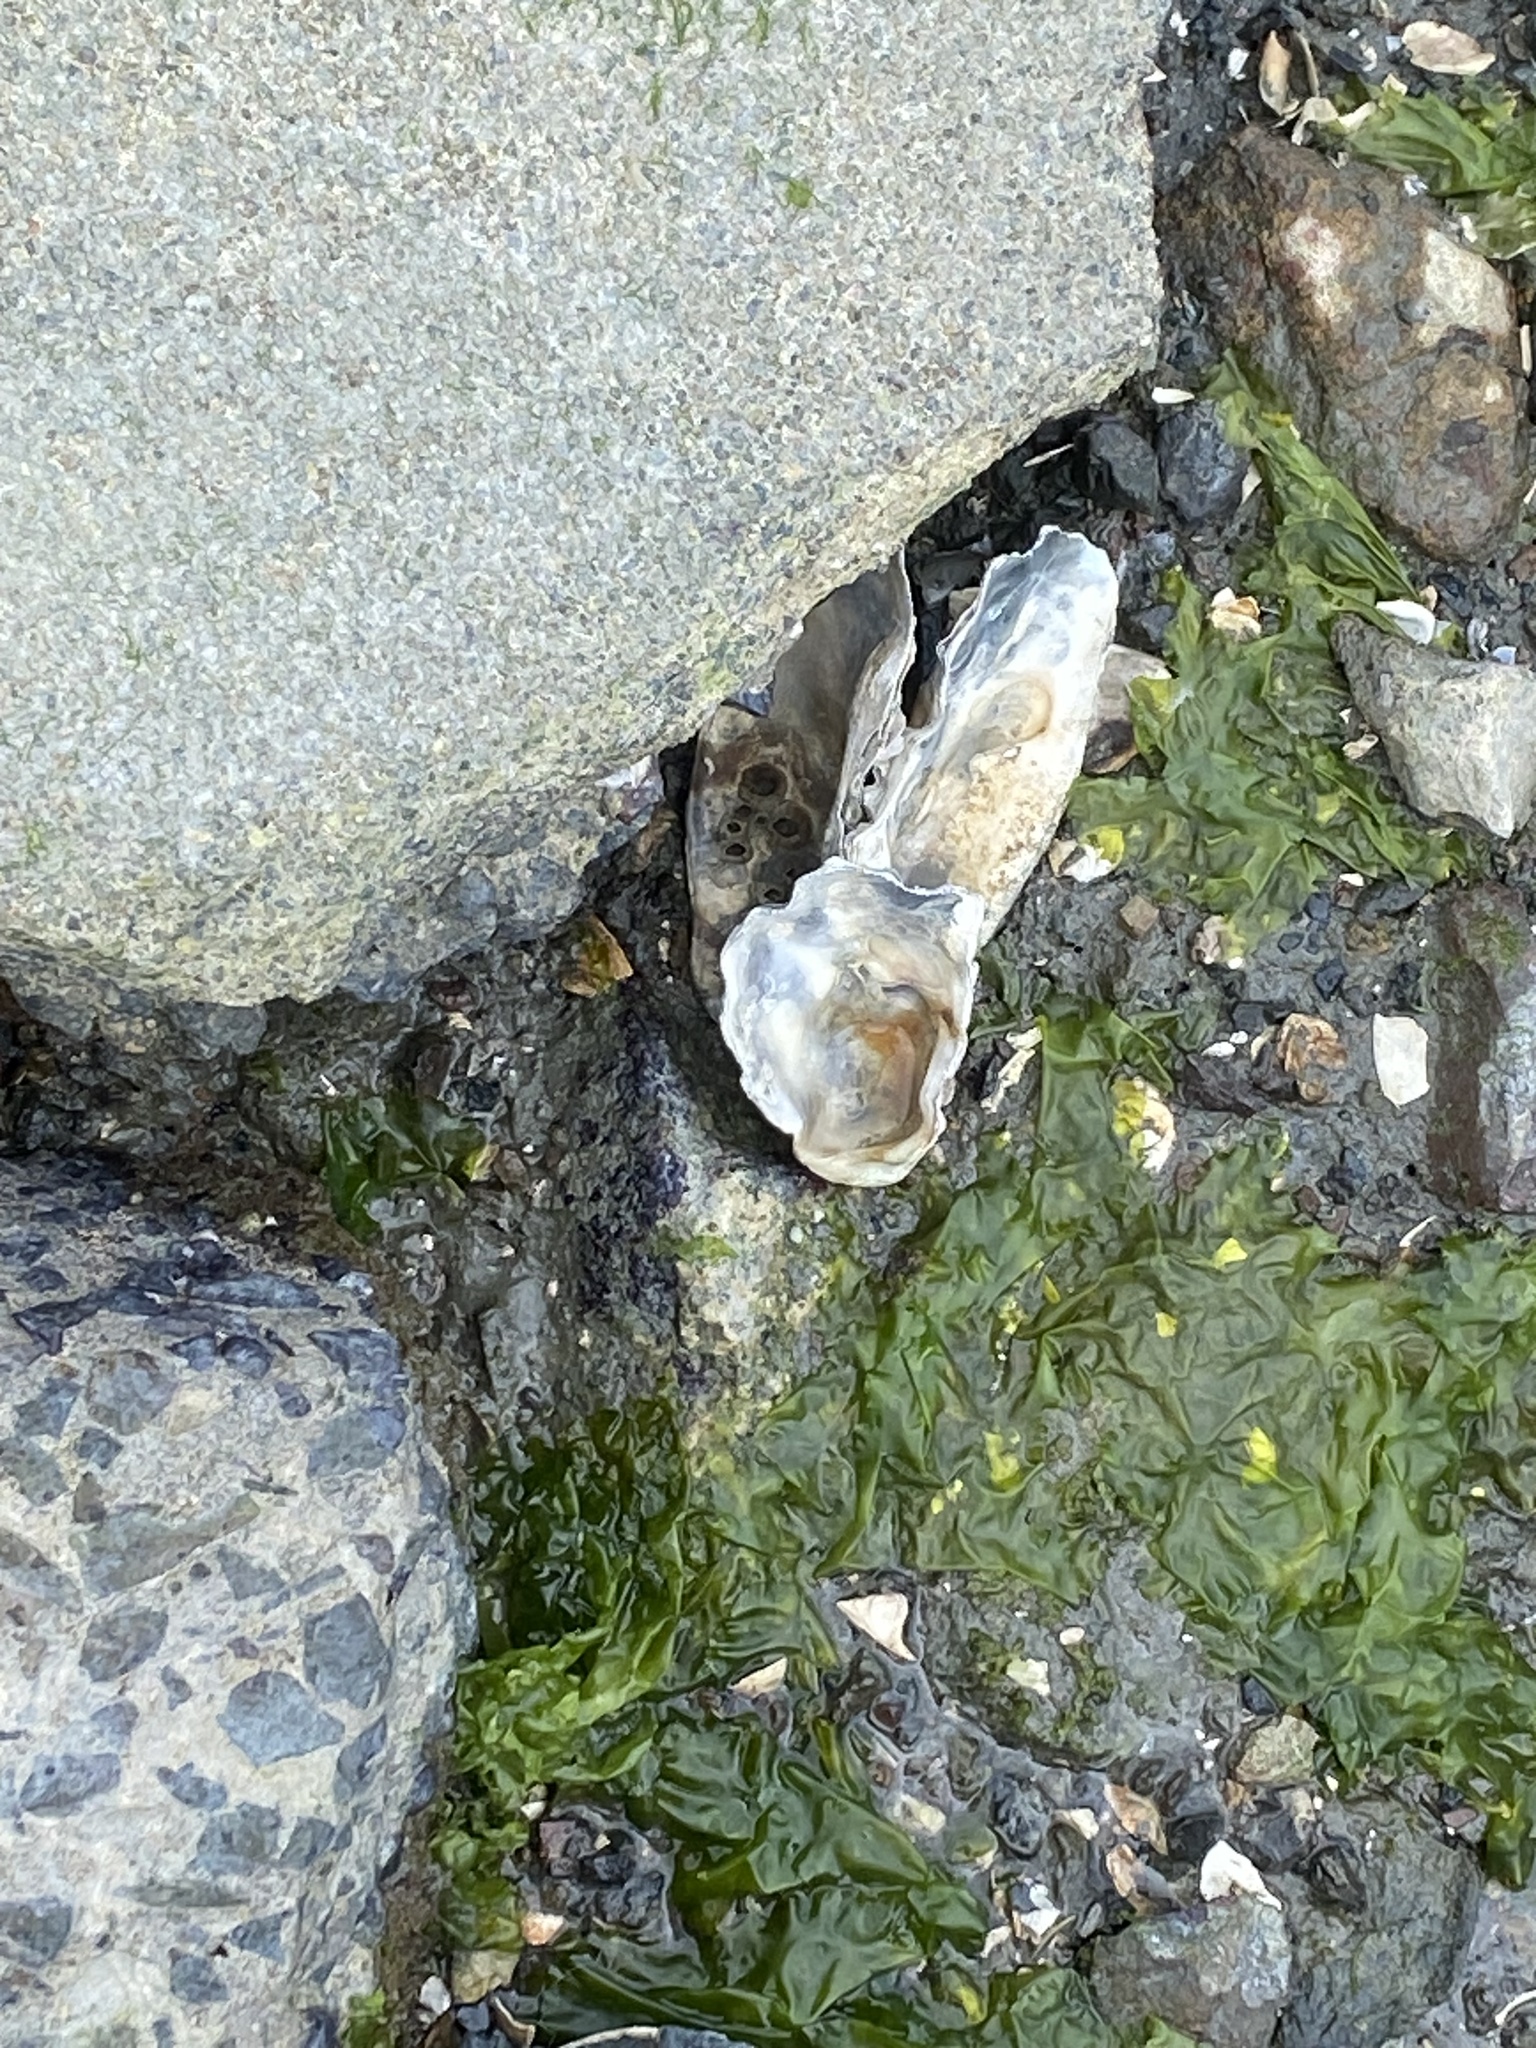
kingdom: Animalia
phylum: Mollusca
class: Bivalvia
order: Ostreida
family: Ostreidae
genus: Magallana
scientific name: Magallana gigas
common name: Pacific oyster
